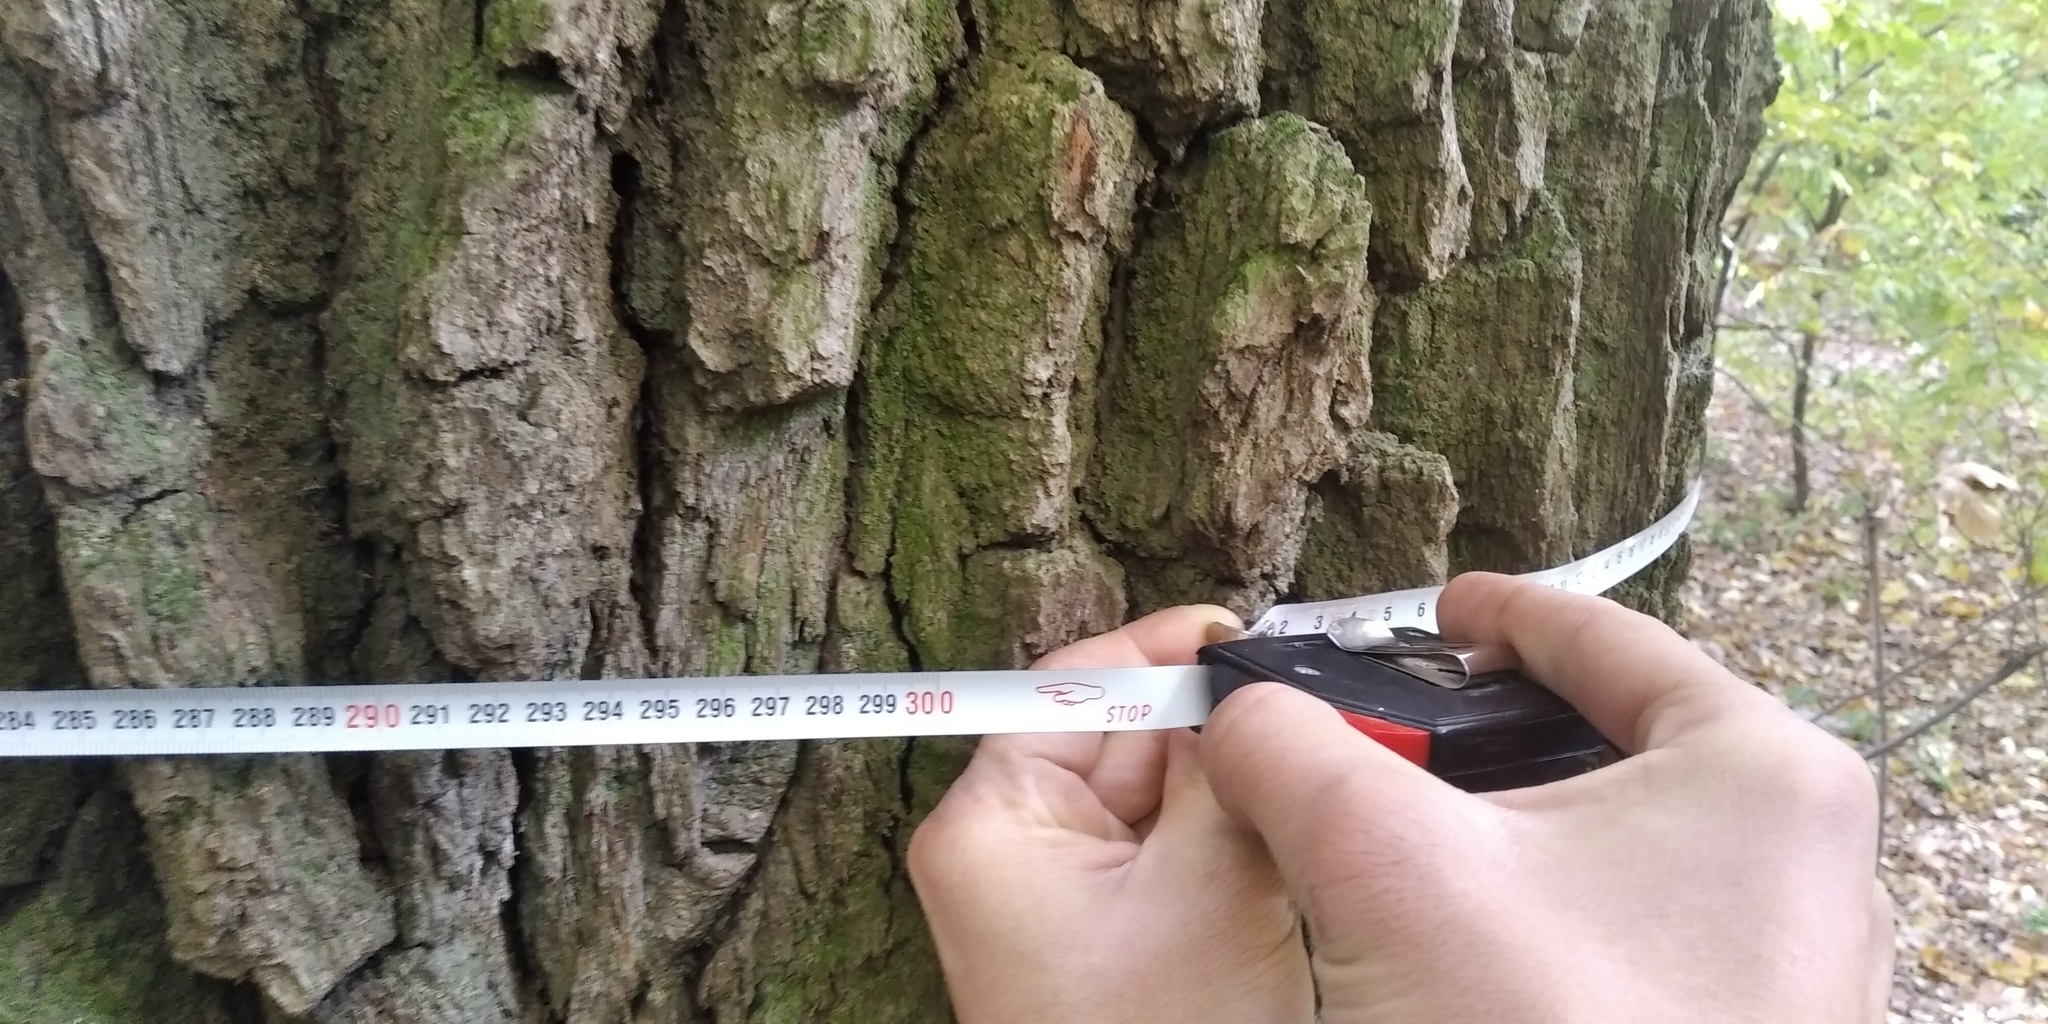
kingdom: Plantae
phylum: Tracheophyta
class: Magnoliopsida
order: Fagales
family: Fagaceae
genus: Quercus
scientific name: Quercus robur
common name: Pedunculate oak
